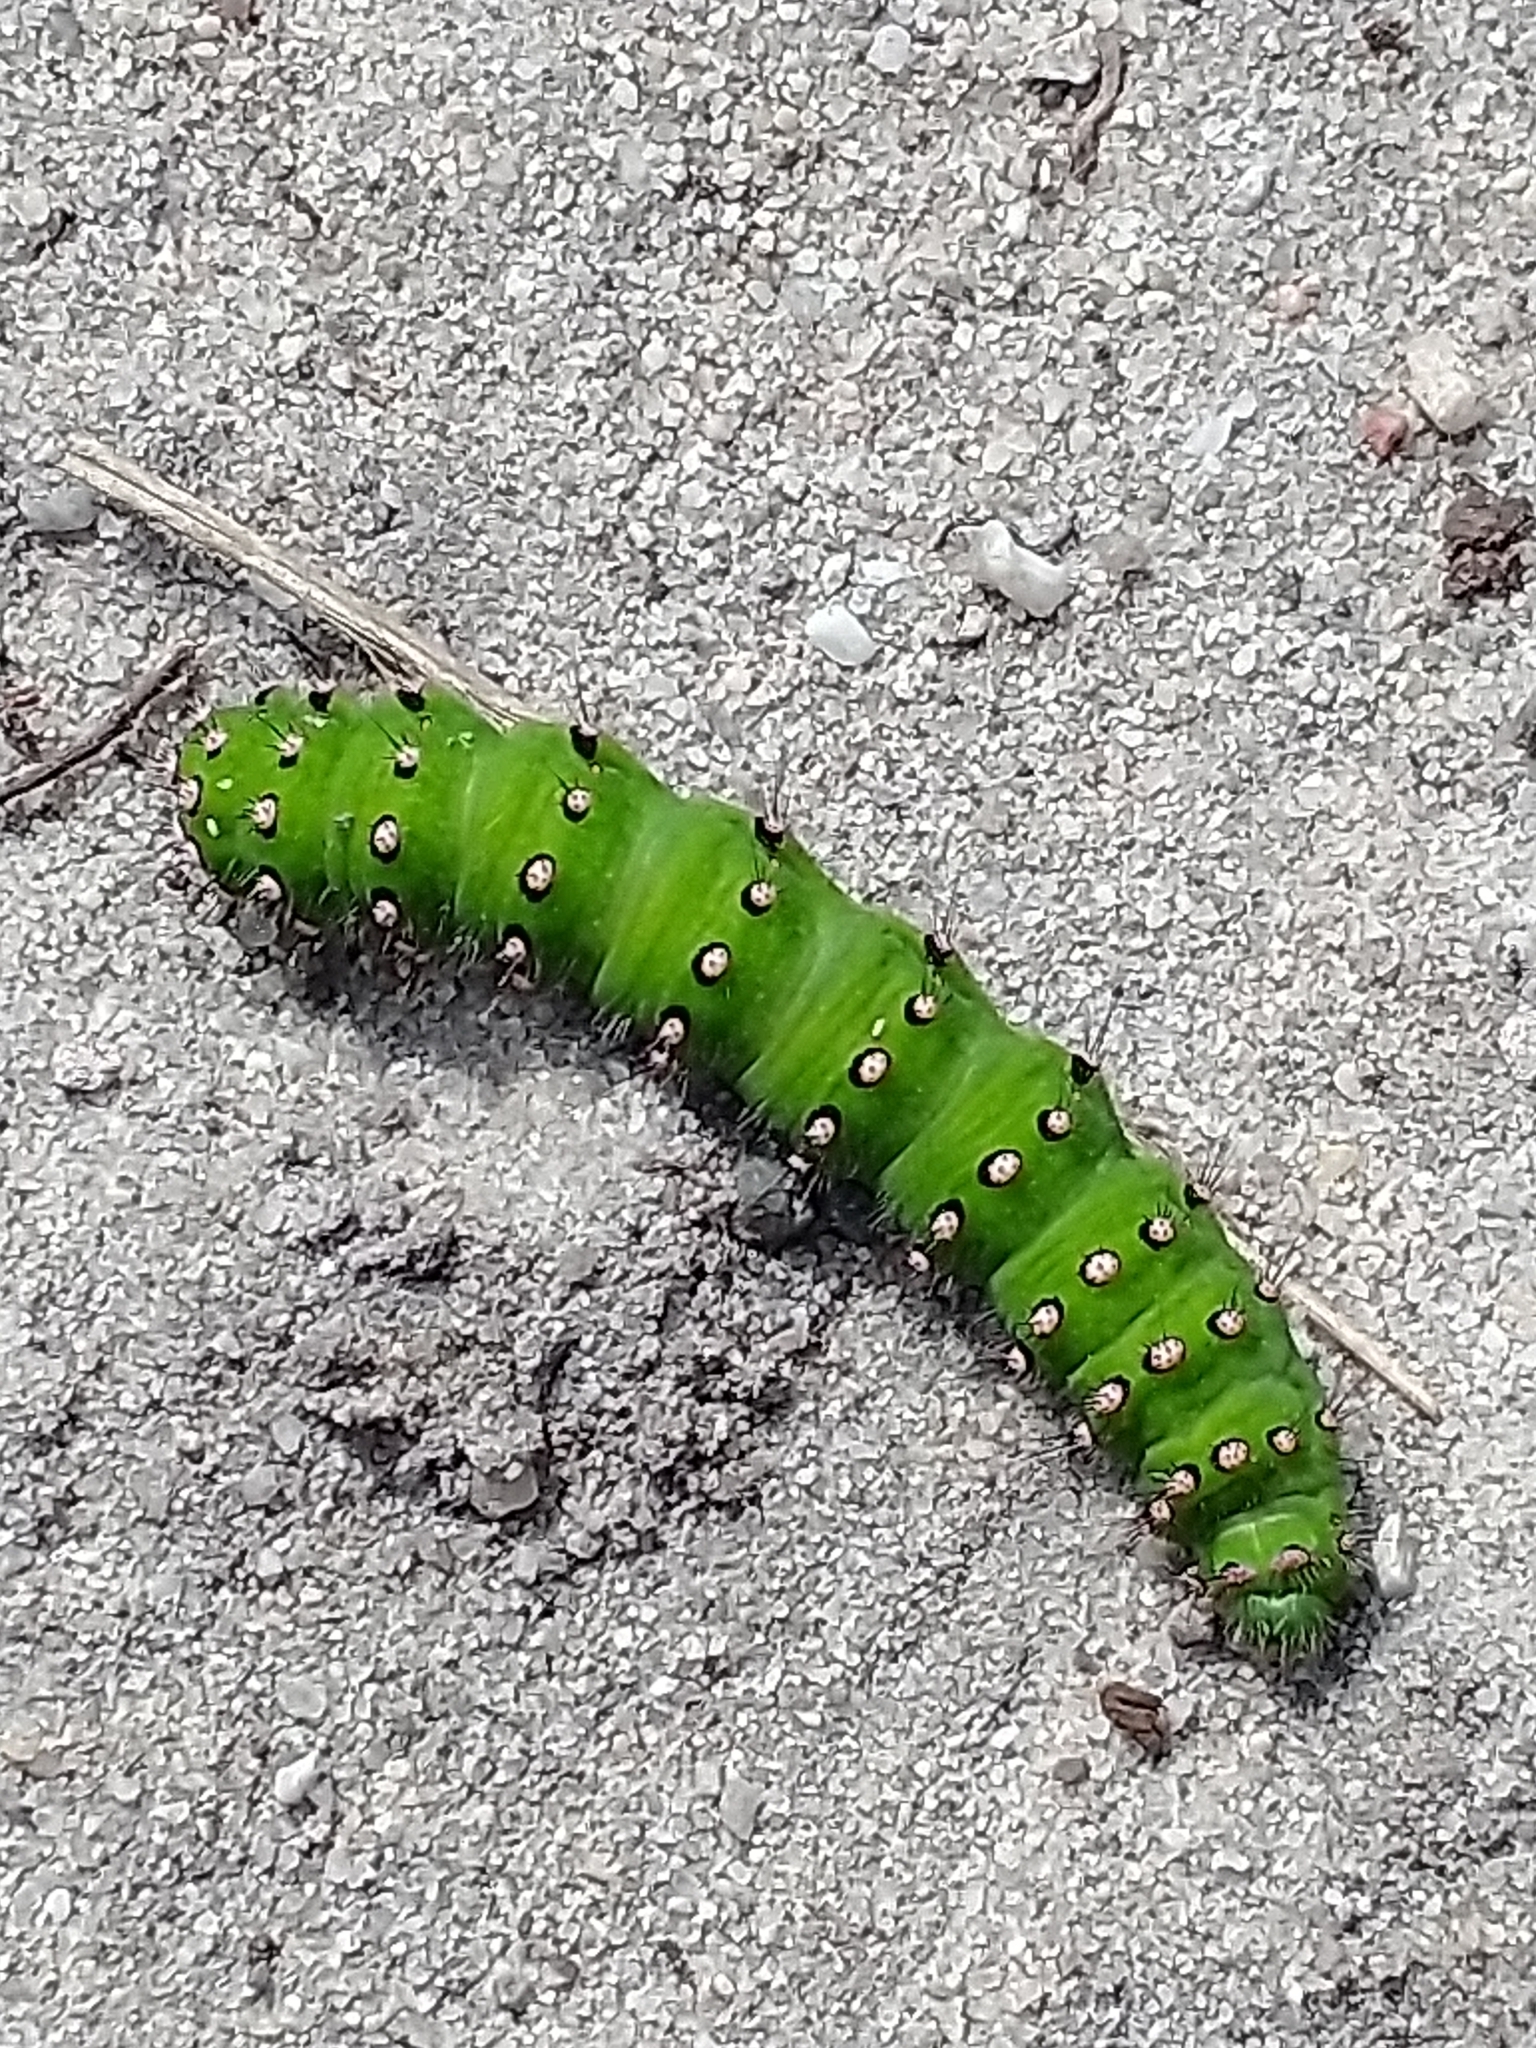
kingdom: Animalia
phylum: Arthropoda
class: Insecta
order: Lepidoptera
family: Saturniidae
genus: Saturnia
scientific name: Saturnia pavonia
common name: Emperor moth
